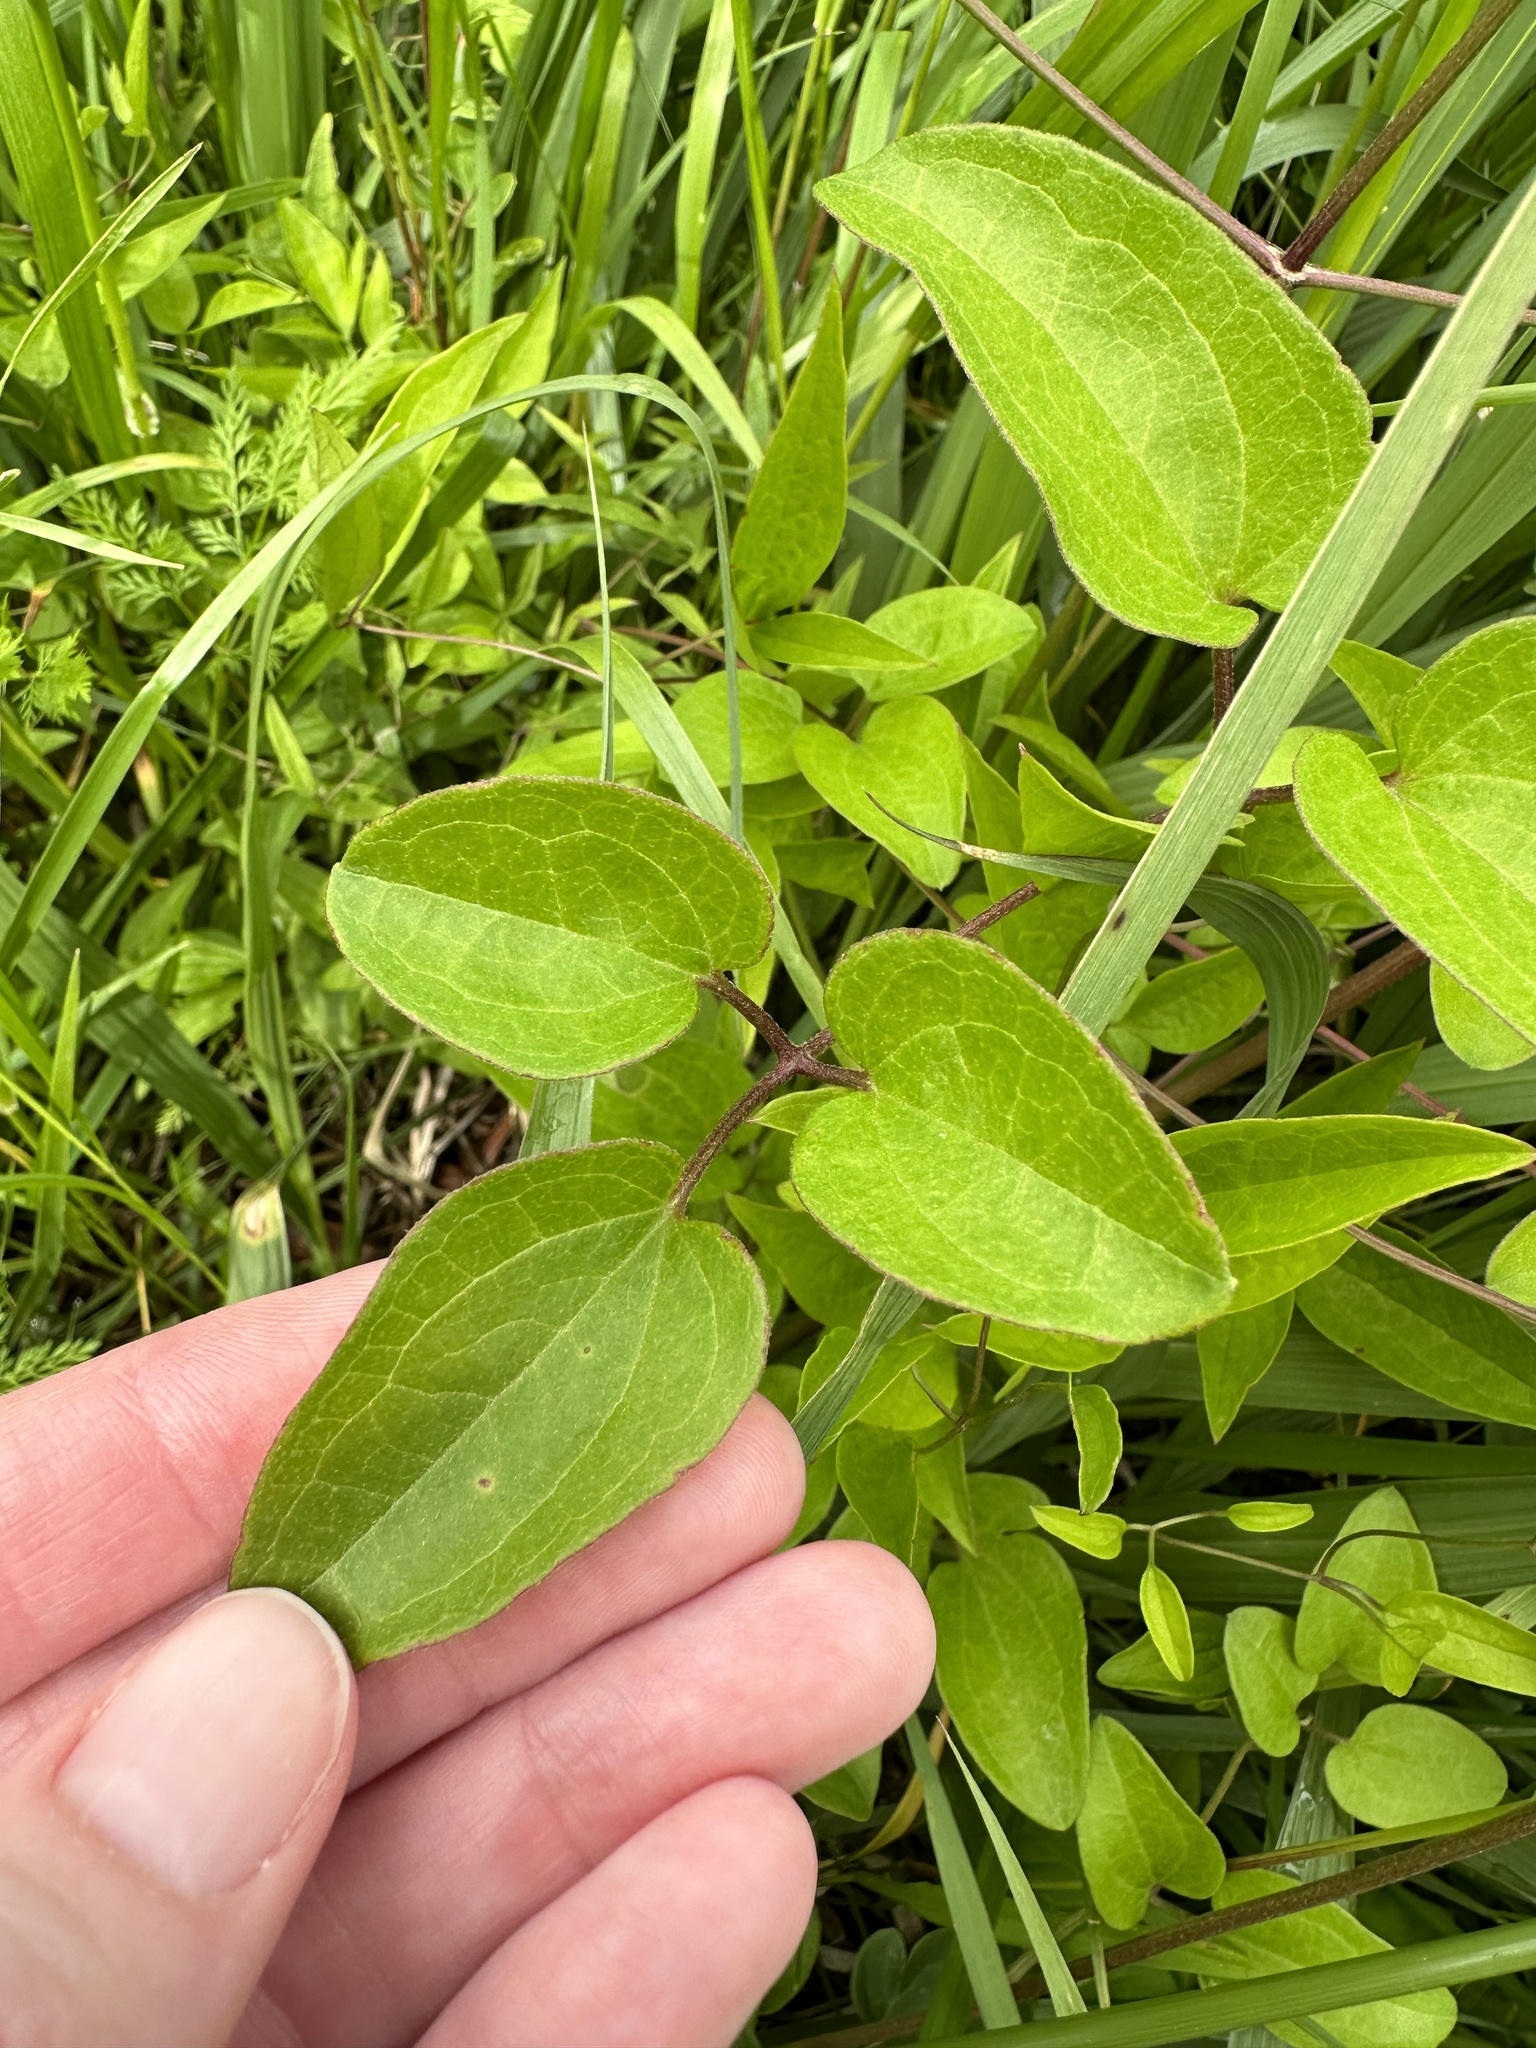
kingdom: Plantae
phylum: Tracheophyta
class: Magnoliopsida
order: Ranunculales
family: Ranunculaceae
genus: Clematis
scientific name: Clematis crispa
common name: Curly clematis
